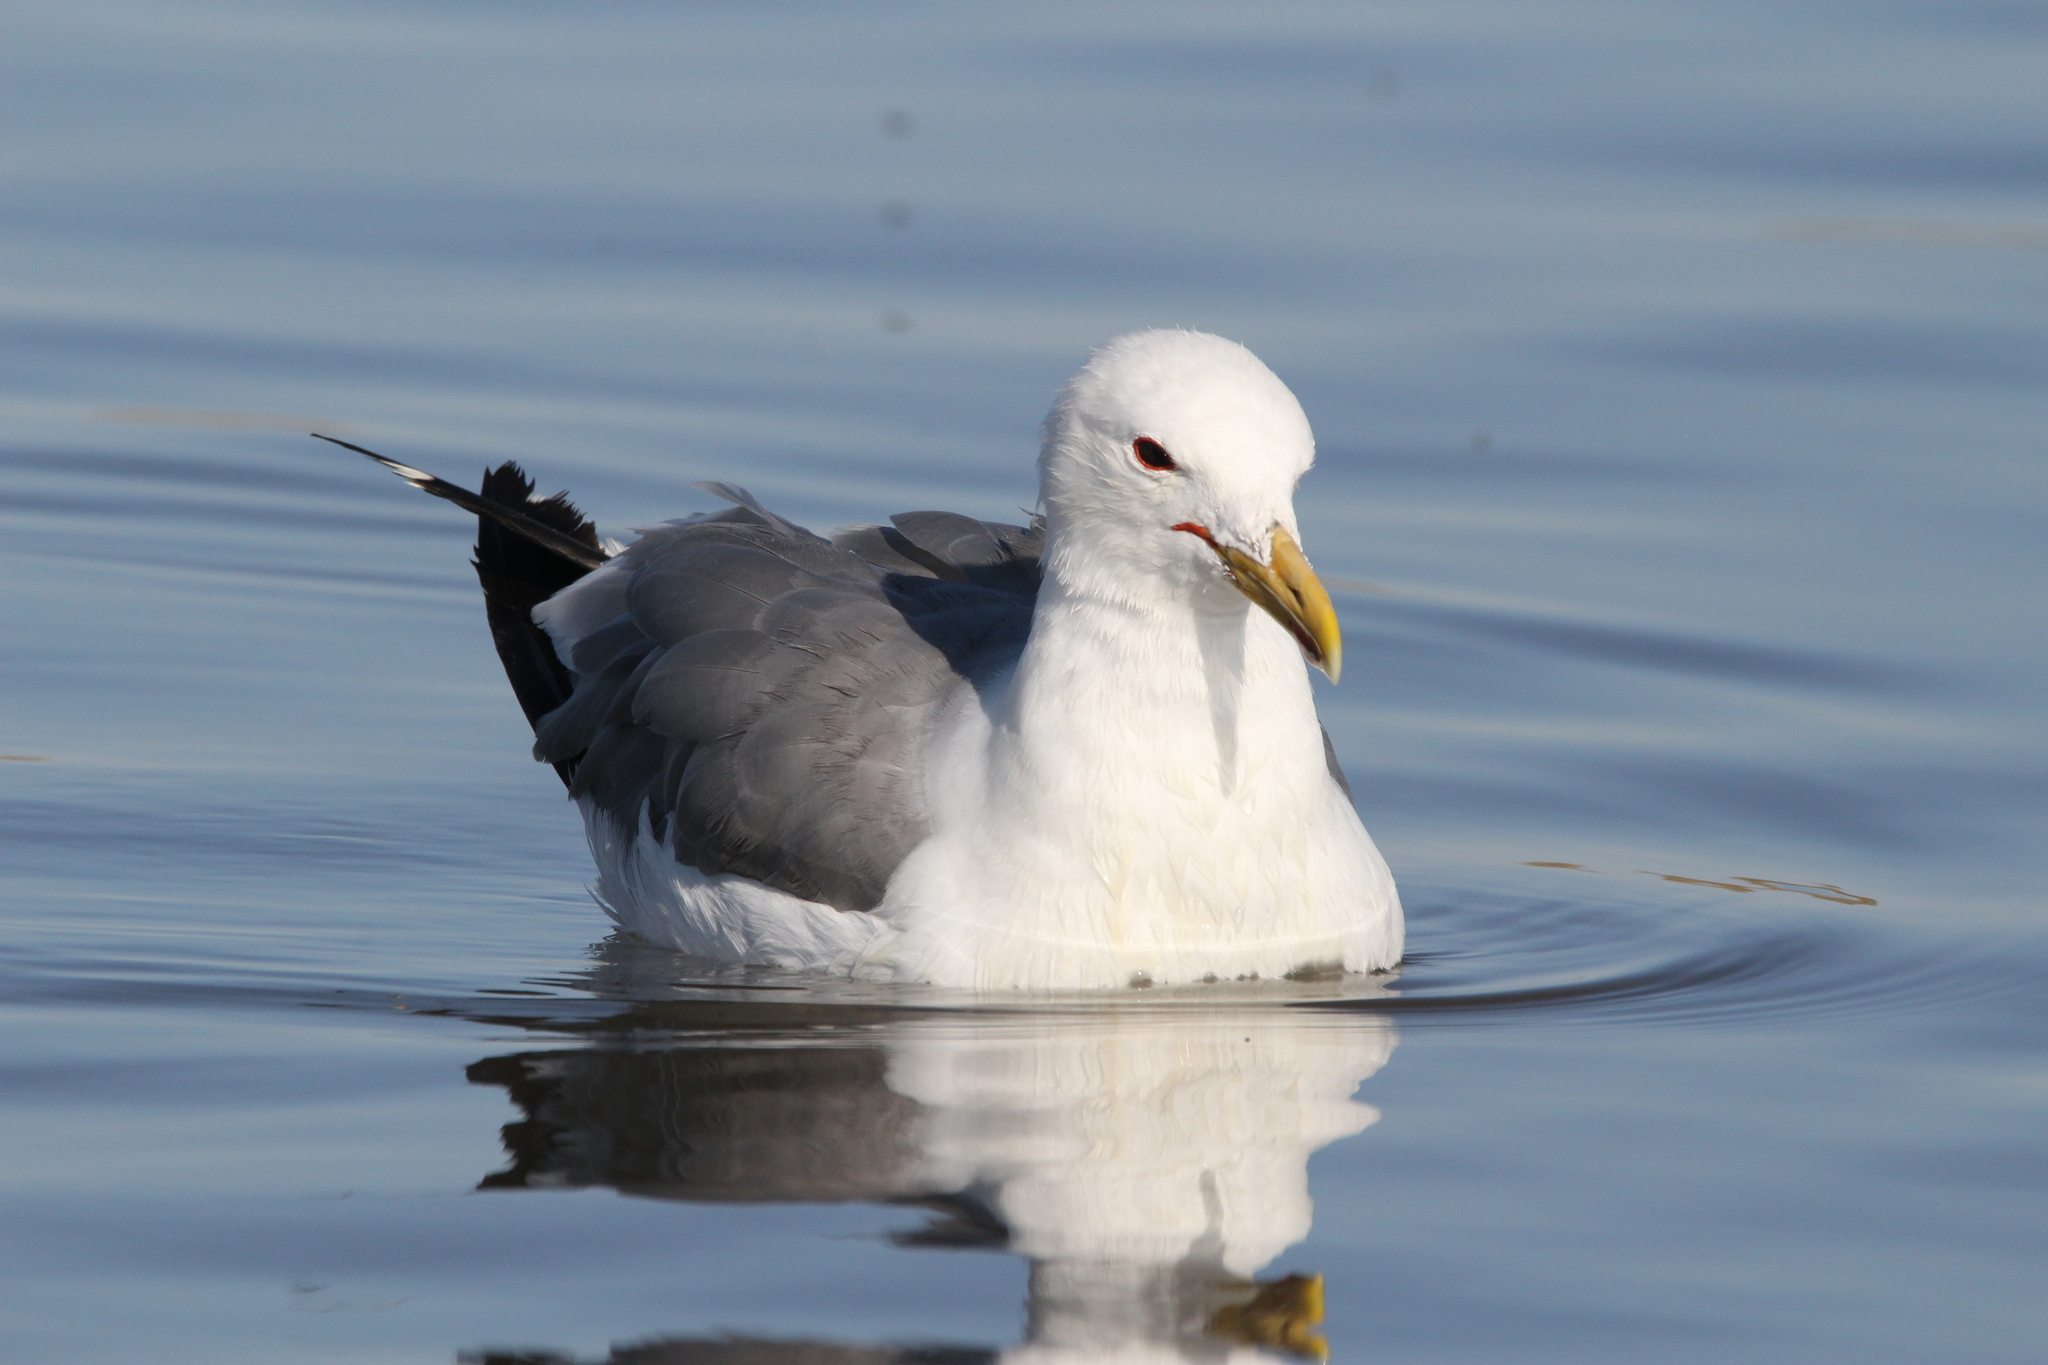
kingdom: Animalia
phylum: Chordata
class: Aves
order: Charadriiformes
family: Laridae
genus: Larus
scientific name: Larus californicus
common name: California gull
